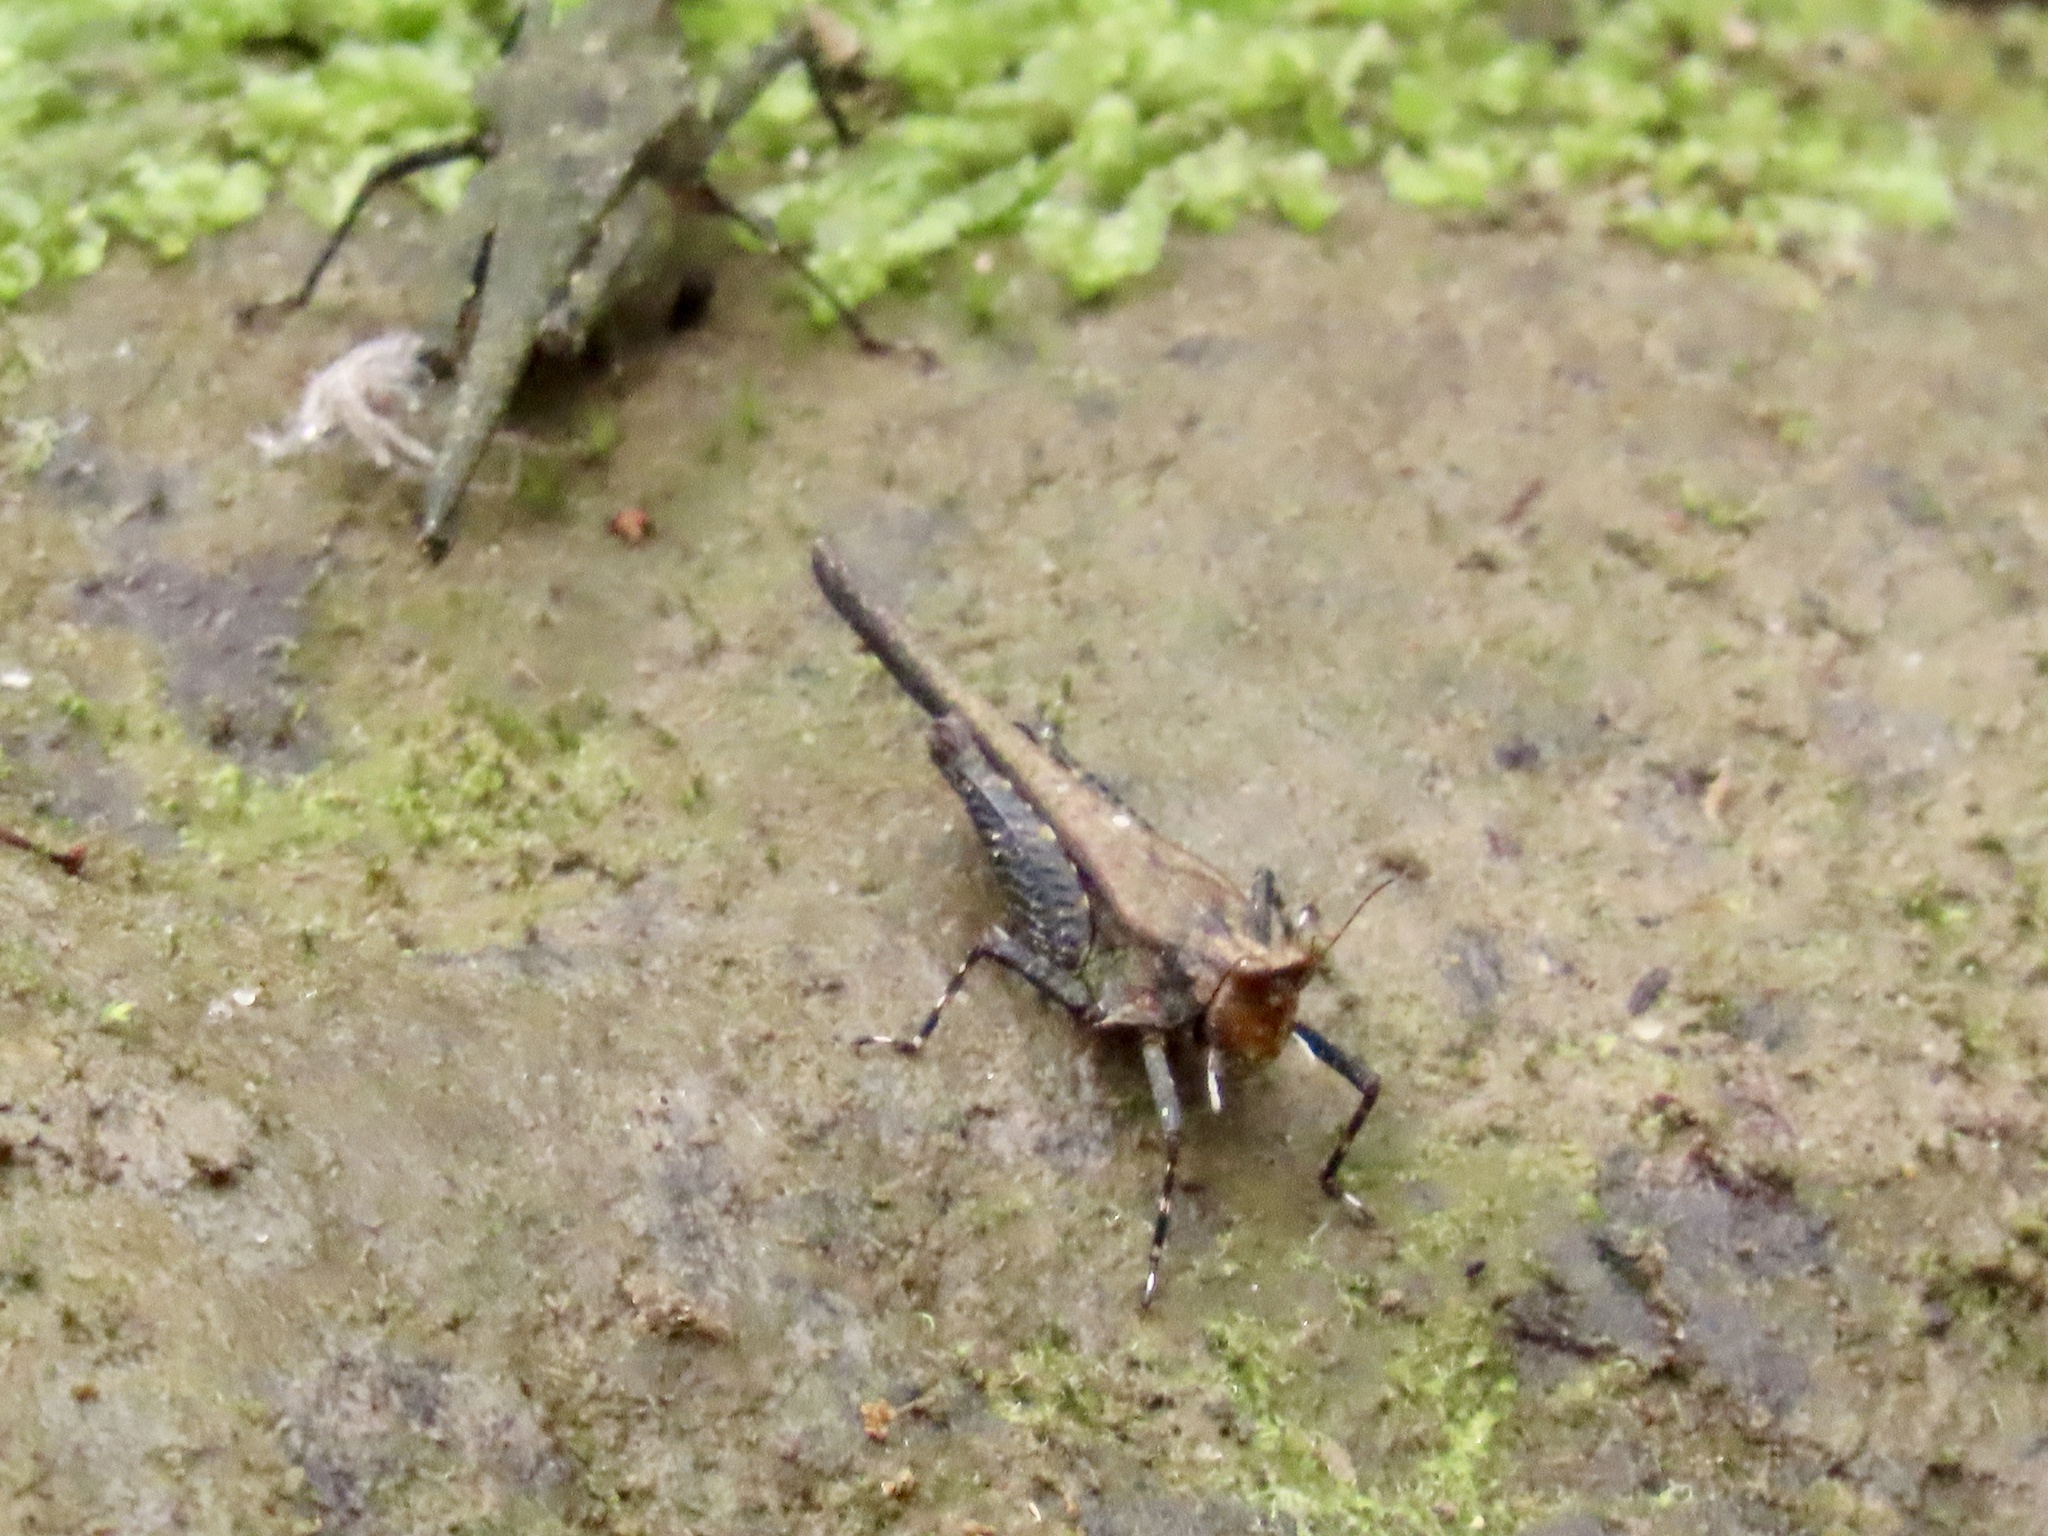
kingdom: Animalia
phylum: Arthropoda
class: Insecta
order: Orthoptera
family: Tetrigidae
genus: Criotettix
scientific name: Criotettix bispinosus
